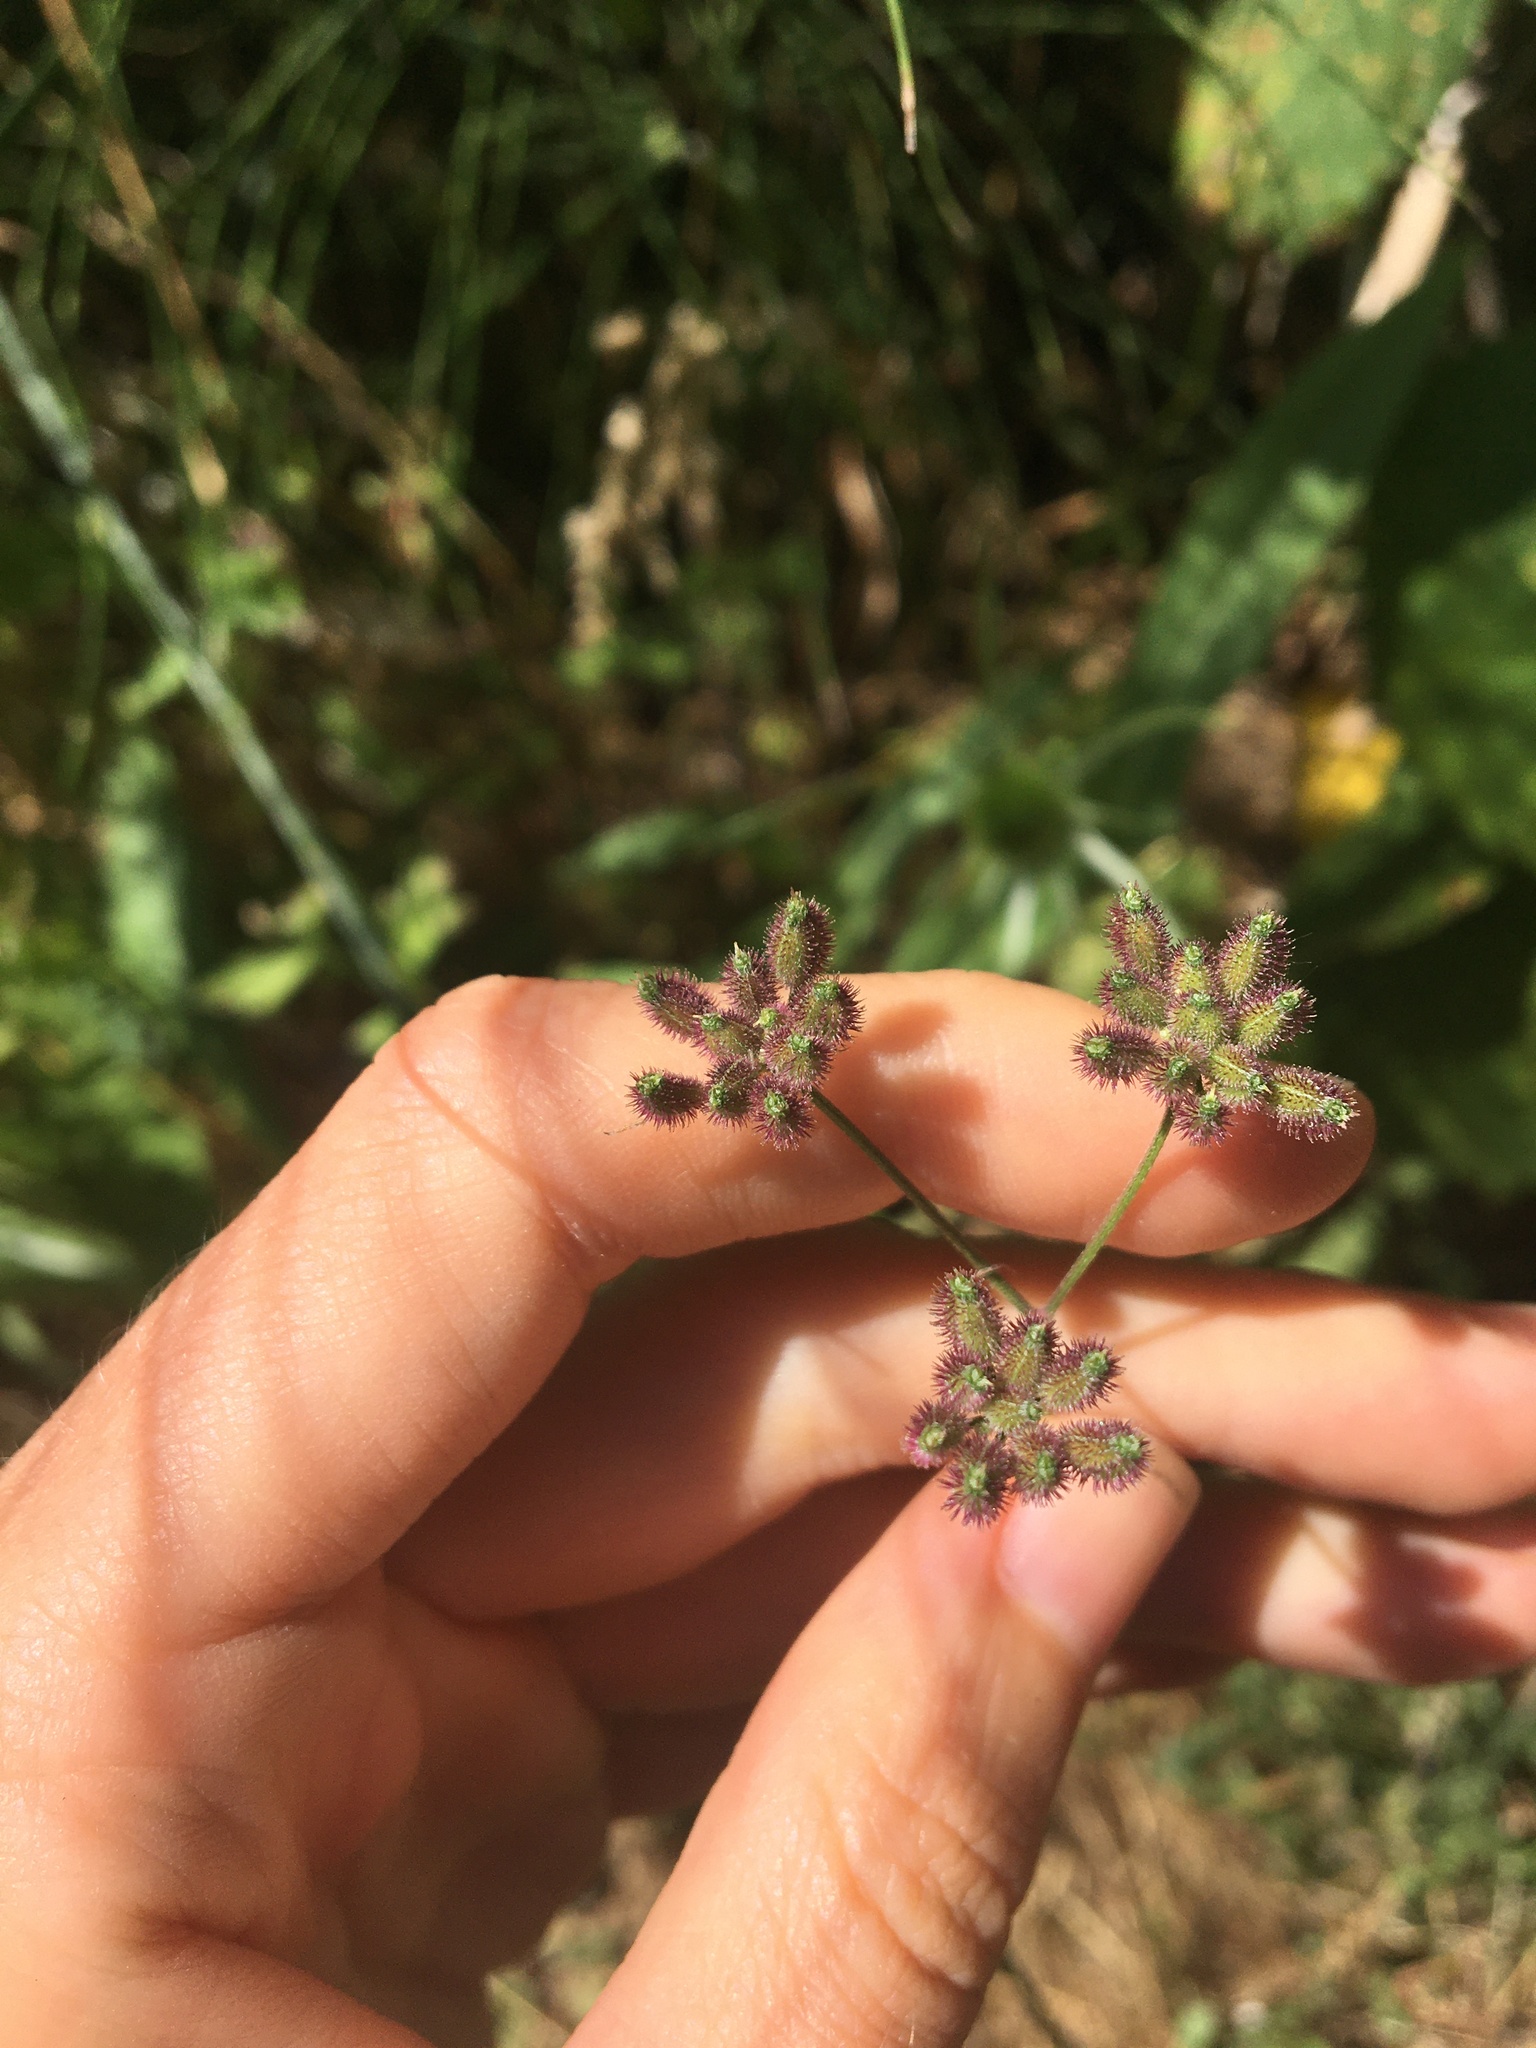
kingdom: Plantae
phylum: Tracheophyta
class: Magnoliopsida
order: Apiales
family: Apiaceae
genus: Torilis
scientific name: Torilis arvensis
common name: Spreading hedge-parsley
